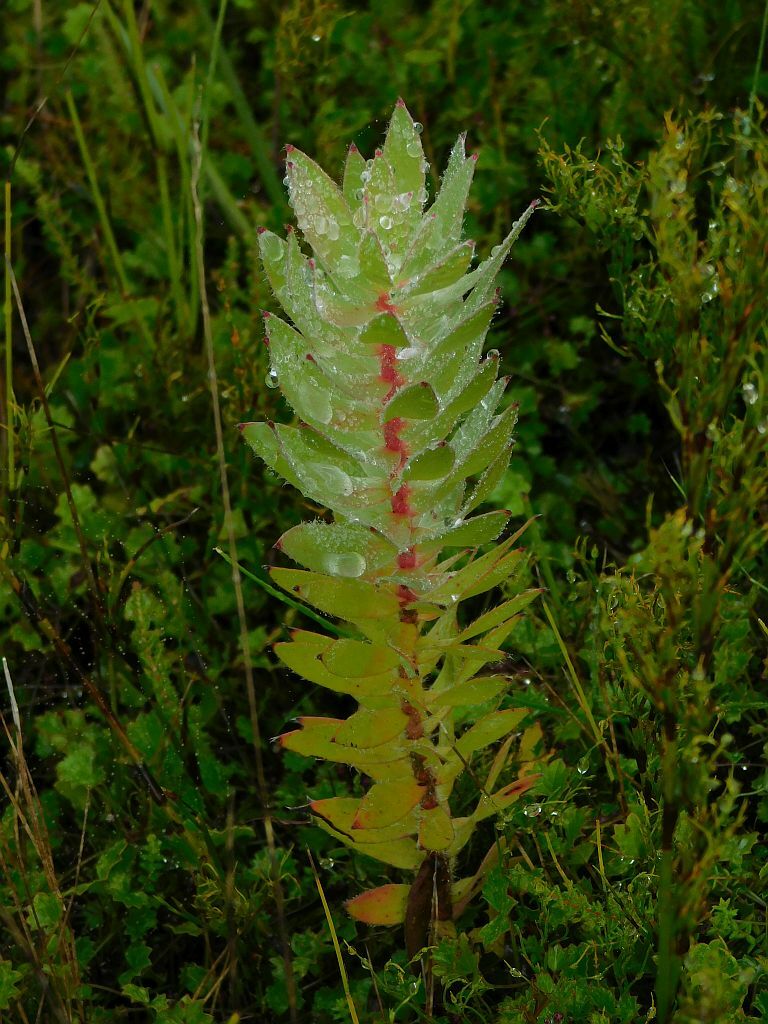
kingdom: Plantae
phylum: Tracheophyta
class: Magnoliopsida
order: Proteales
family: Proteaceae
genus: Mimetes
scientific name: Mimetes argenteus
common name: Silver pagoda
